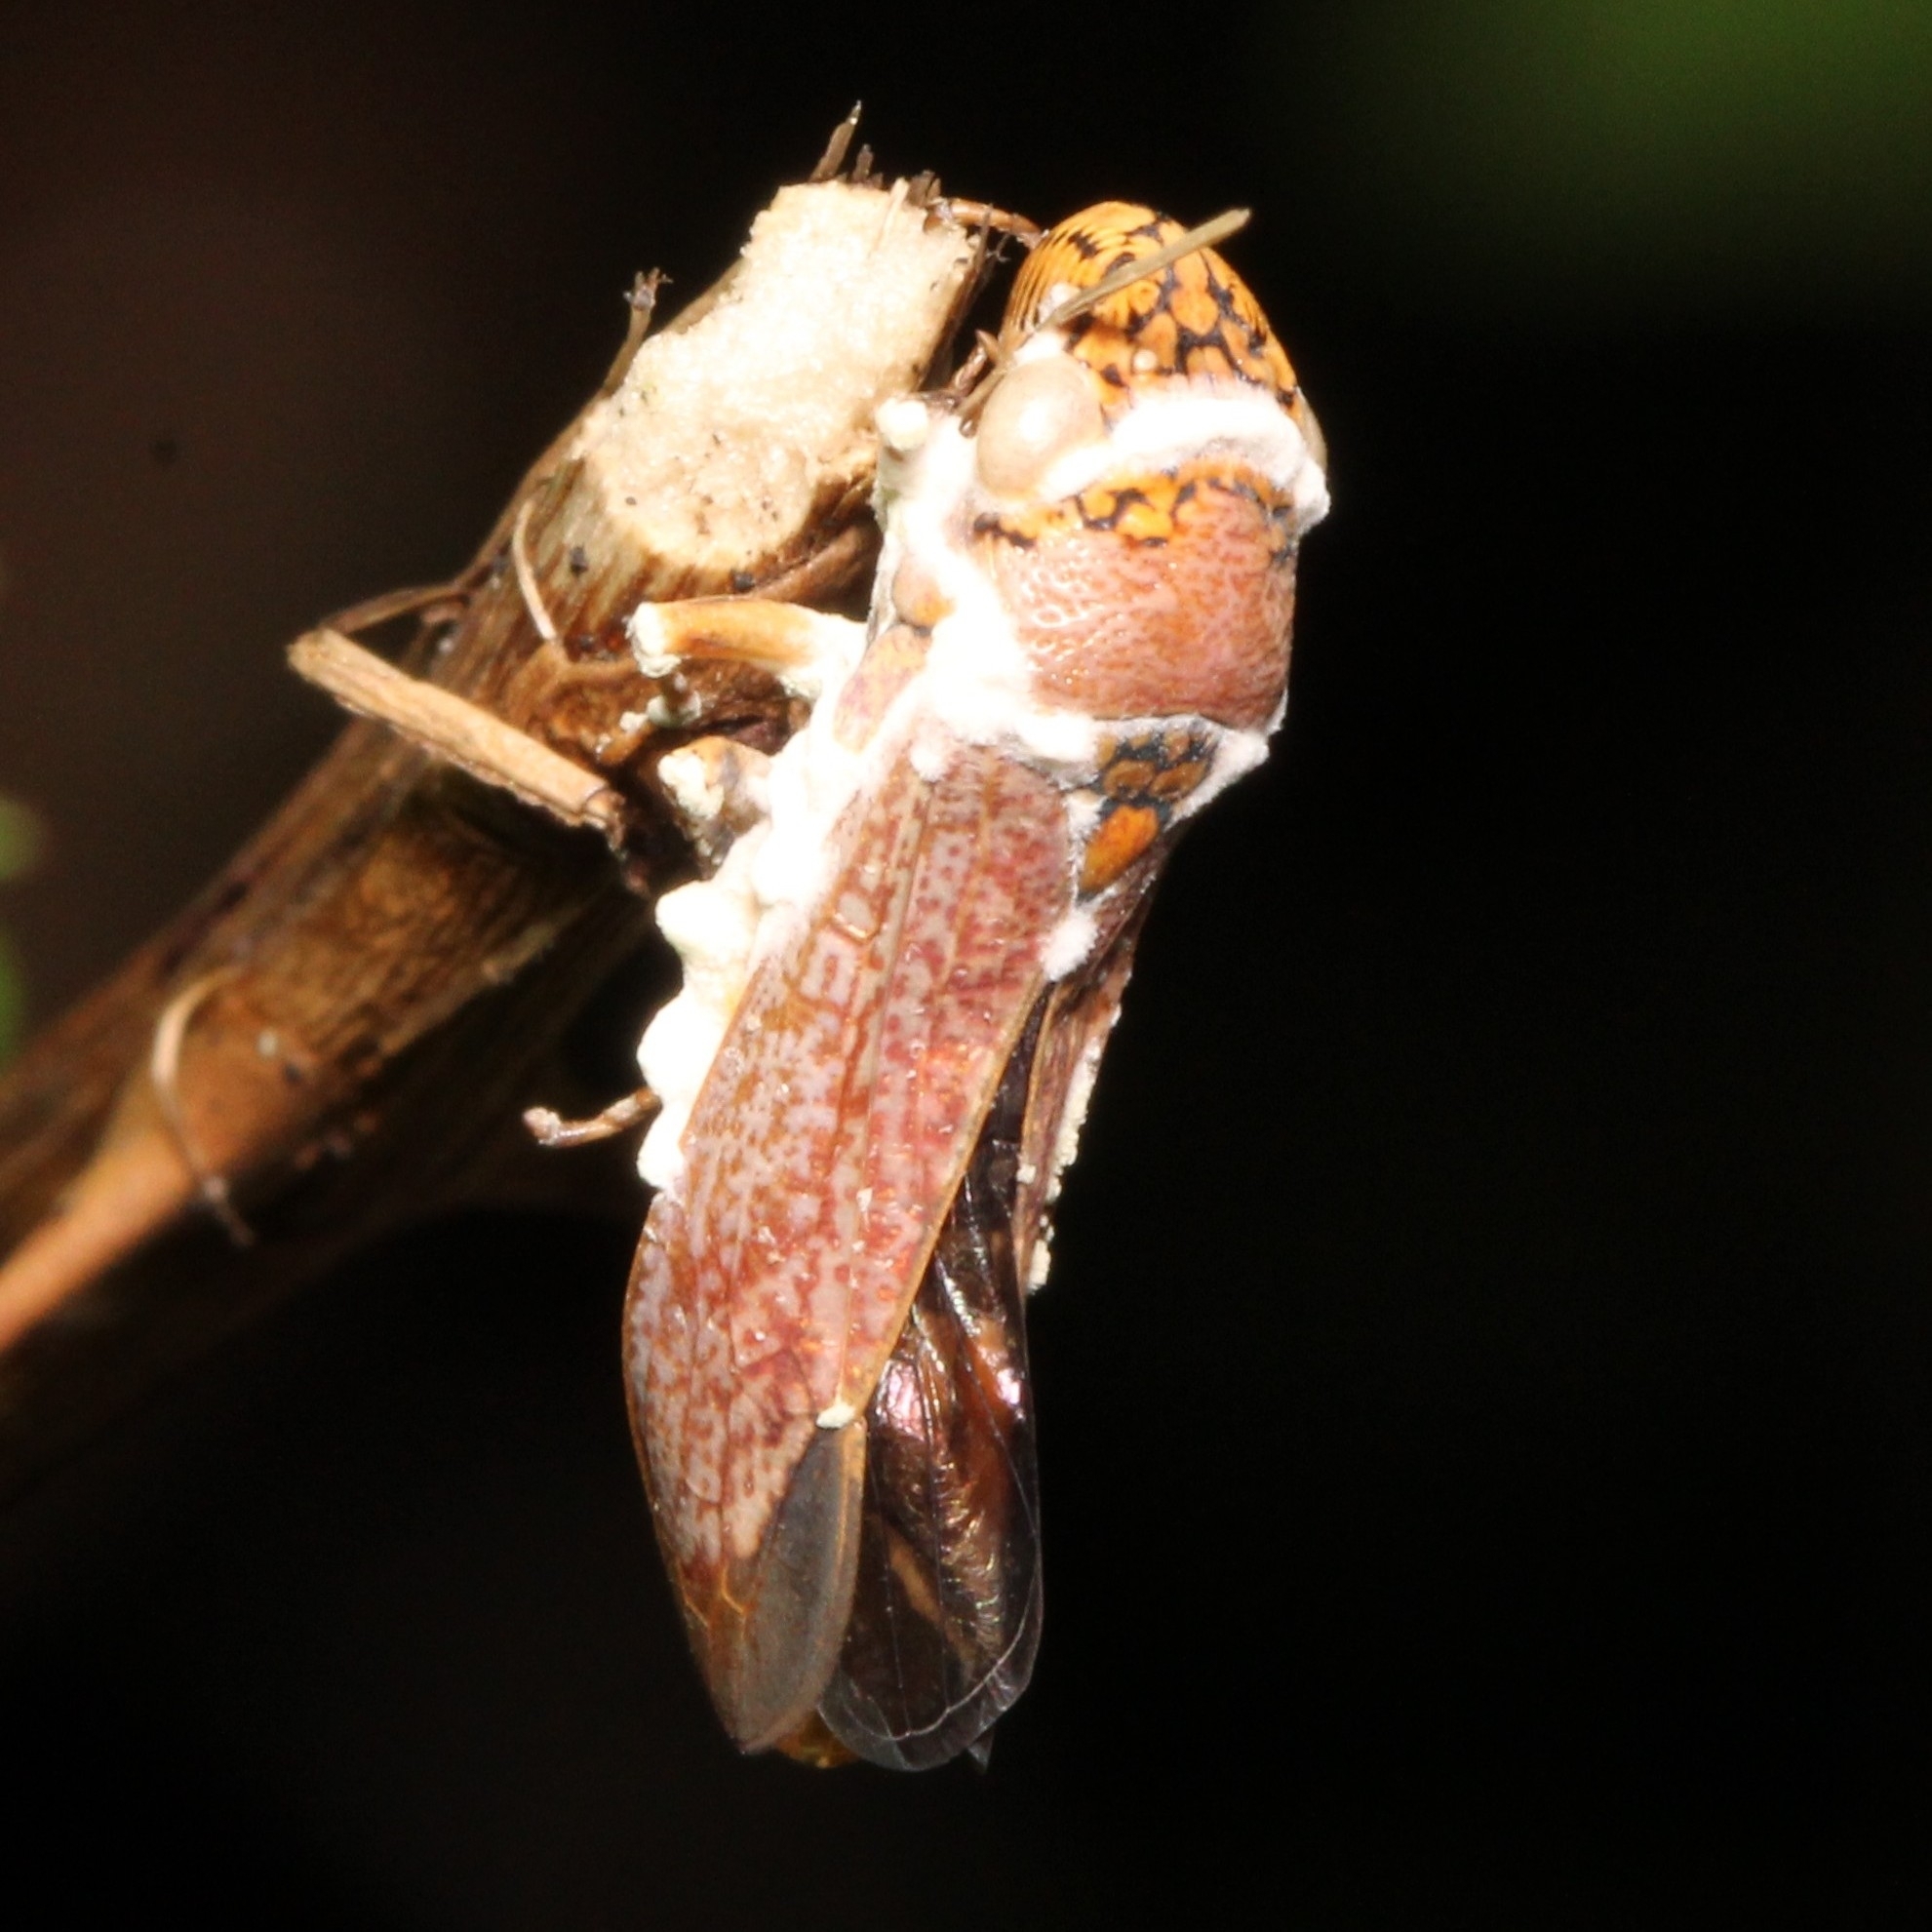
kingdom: Animalia
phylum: Arthropoda
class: Insecta
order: Hemiptera
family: Cicadellidae
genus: Oncometopia
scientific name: Oncometopia orbona
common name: Broad-headed sharpshooter
